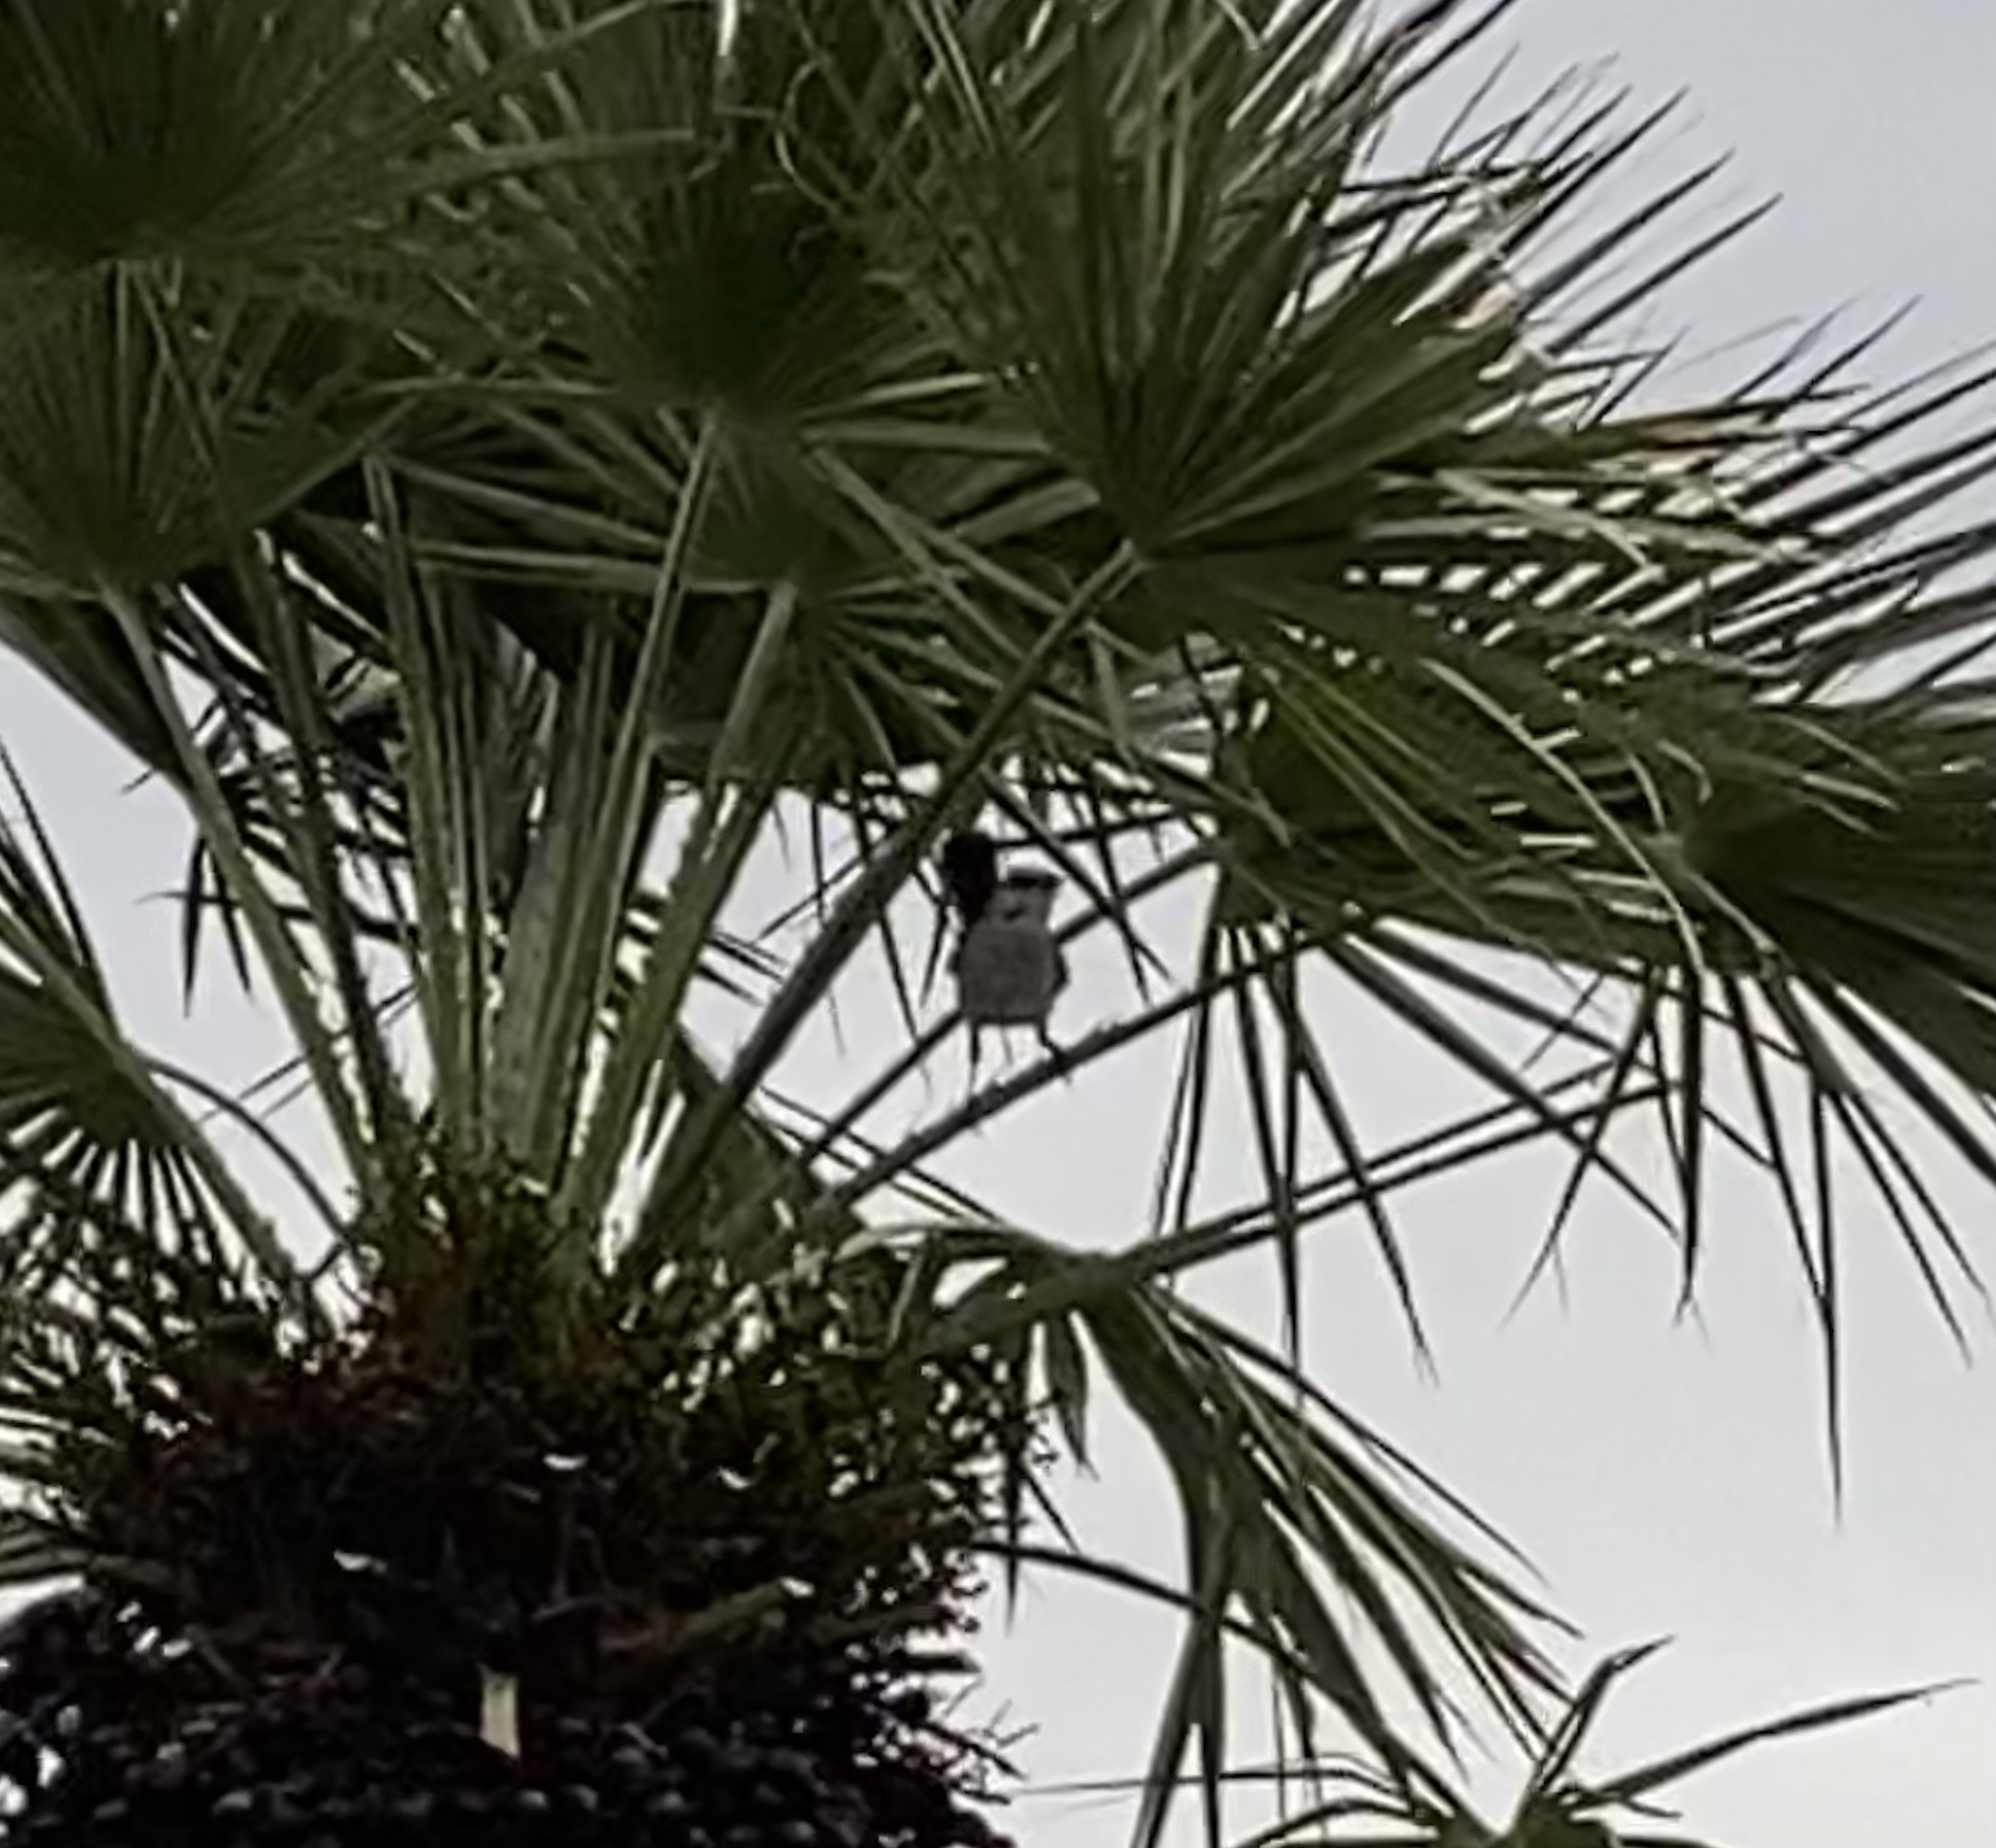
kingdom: Animalia
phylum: Chordata
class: Aves
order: Passeriformes
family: Mimidae
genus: Mimus
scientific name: Mimus polyglottos
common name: Northern mockingbird
